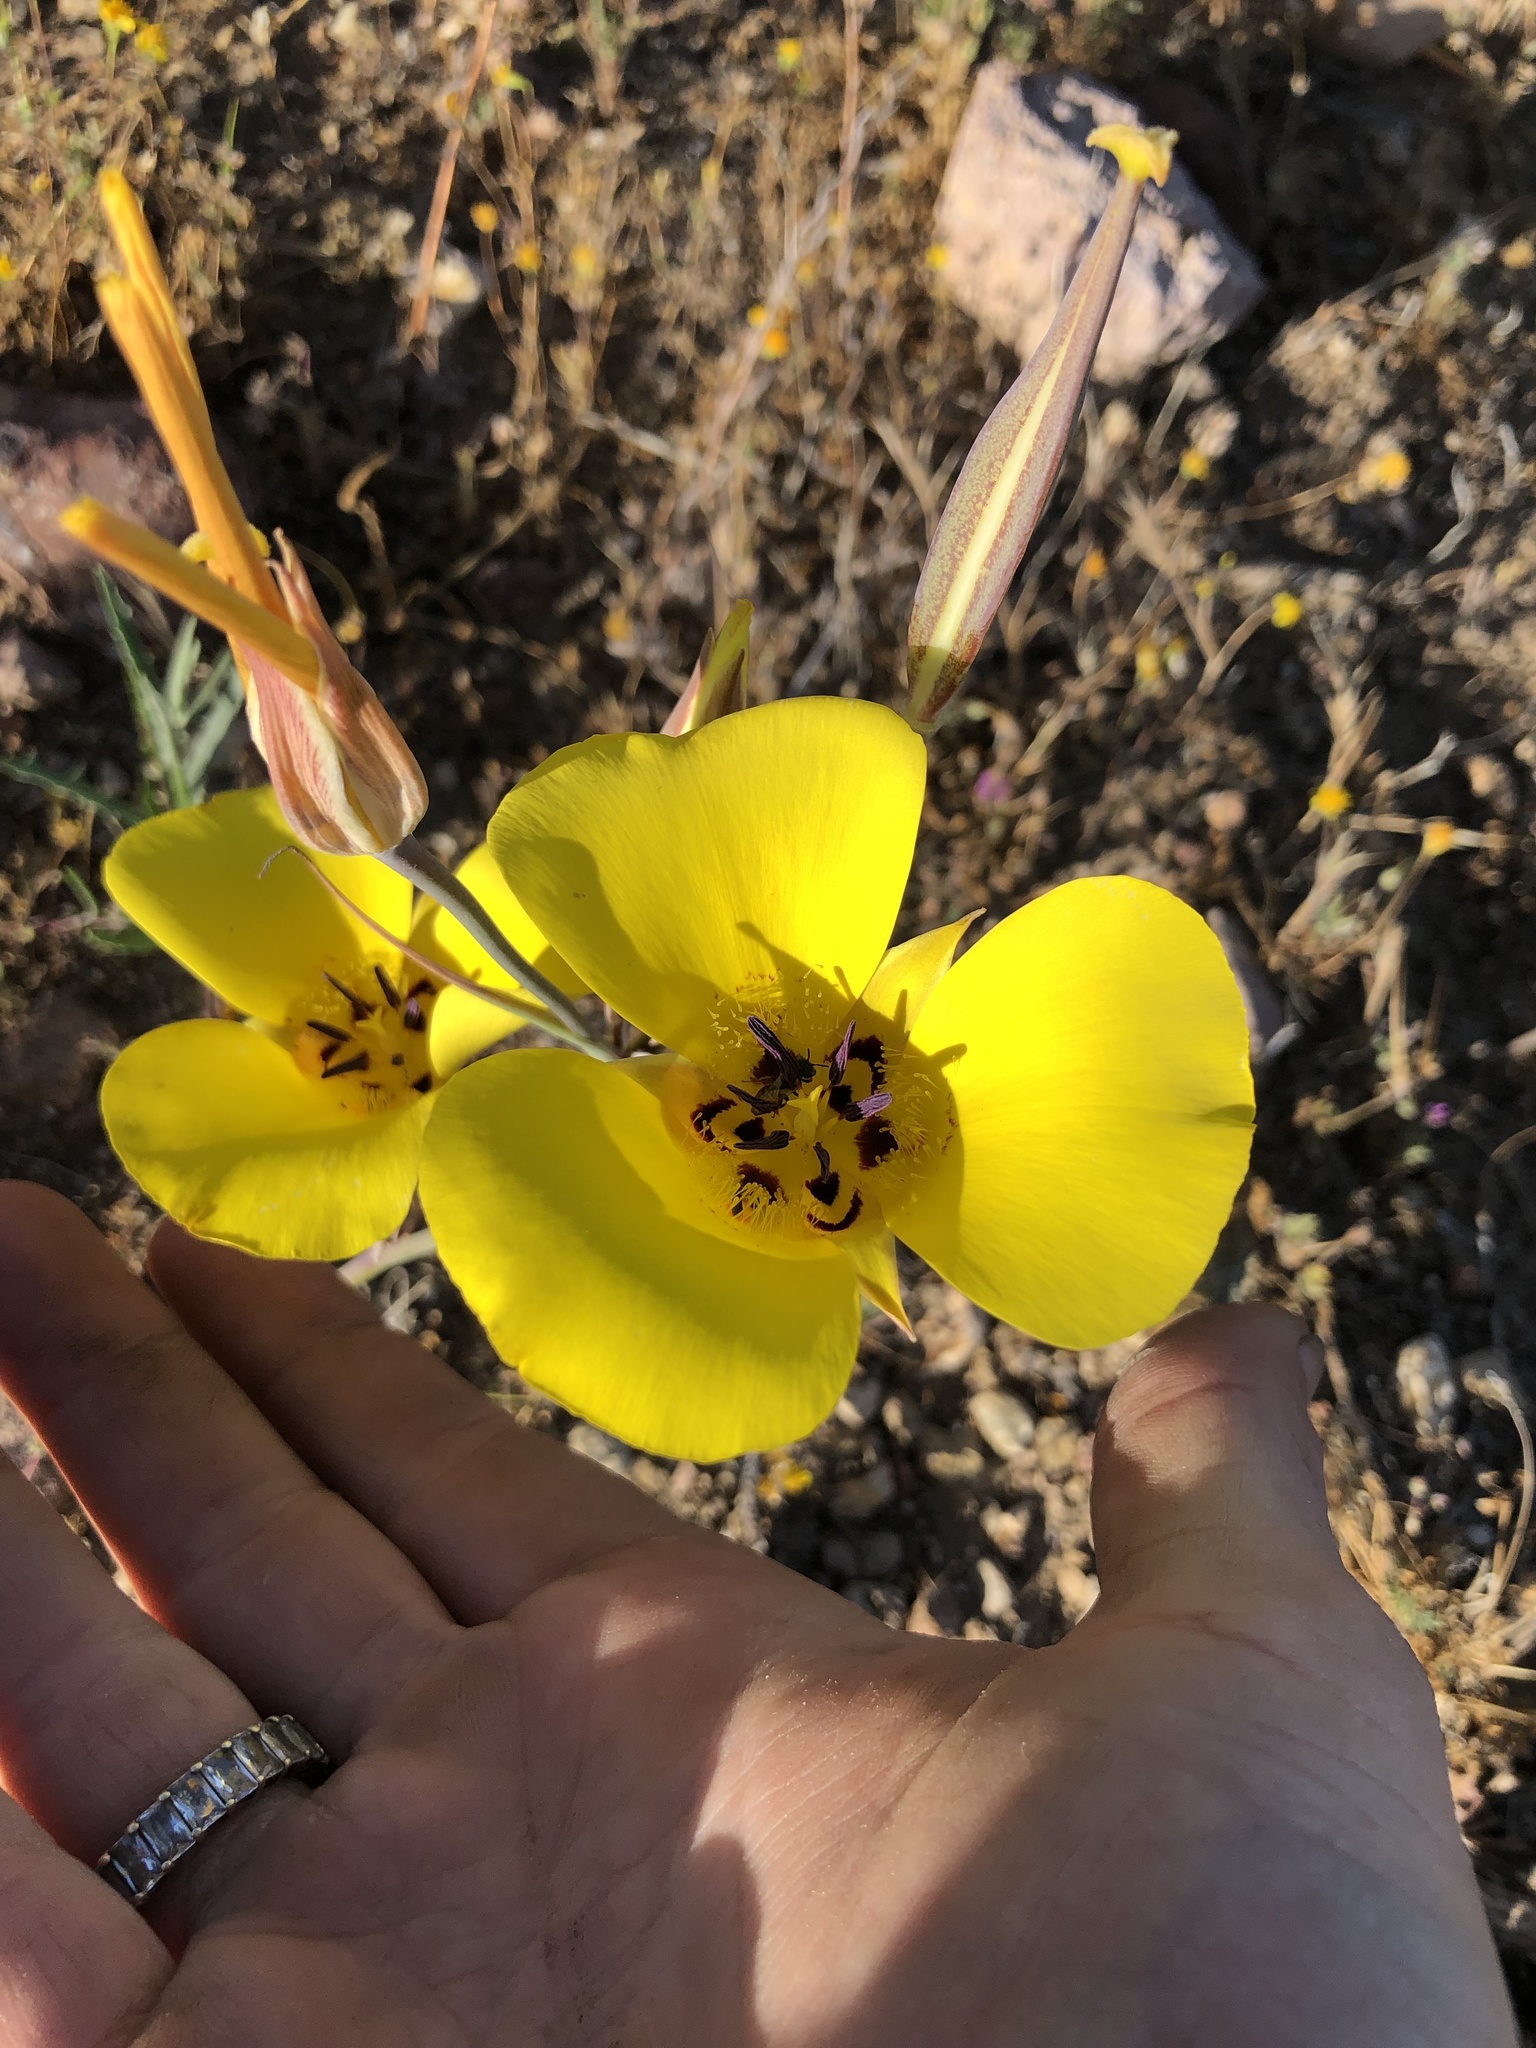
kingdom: Plantae
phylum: Tracheophyta
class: Liliopsida
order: Liliales
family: Liliaceae
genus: Calochortus
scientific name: Calochortus clavatus
